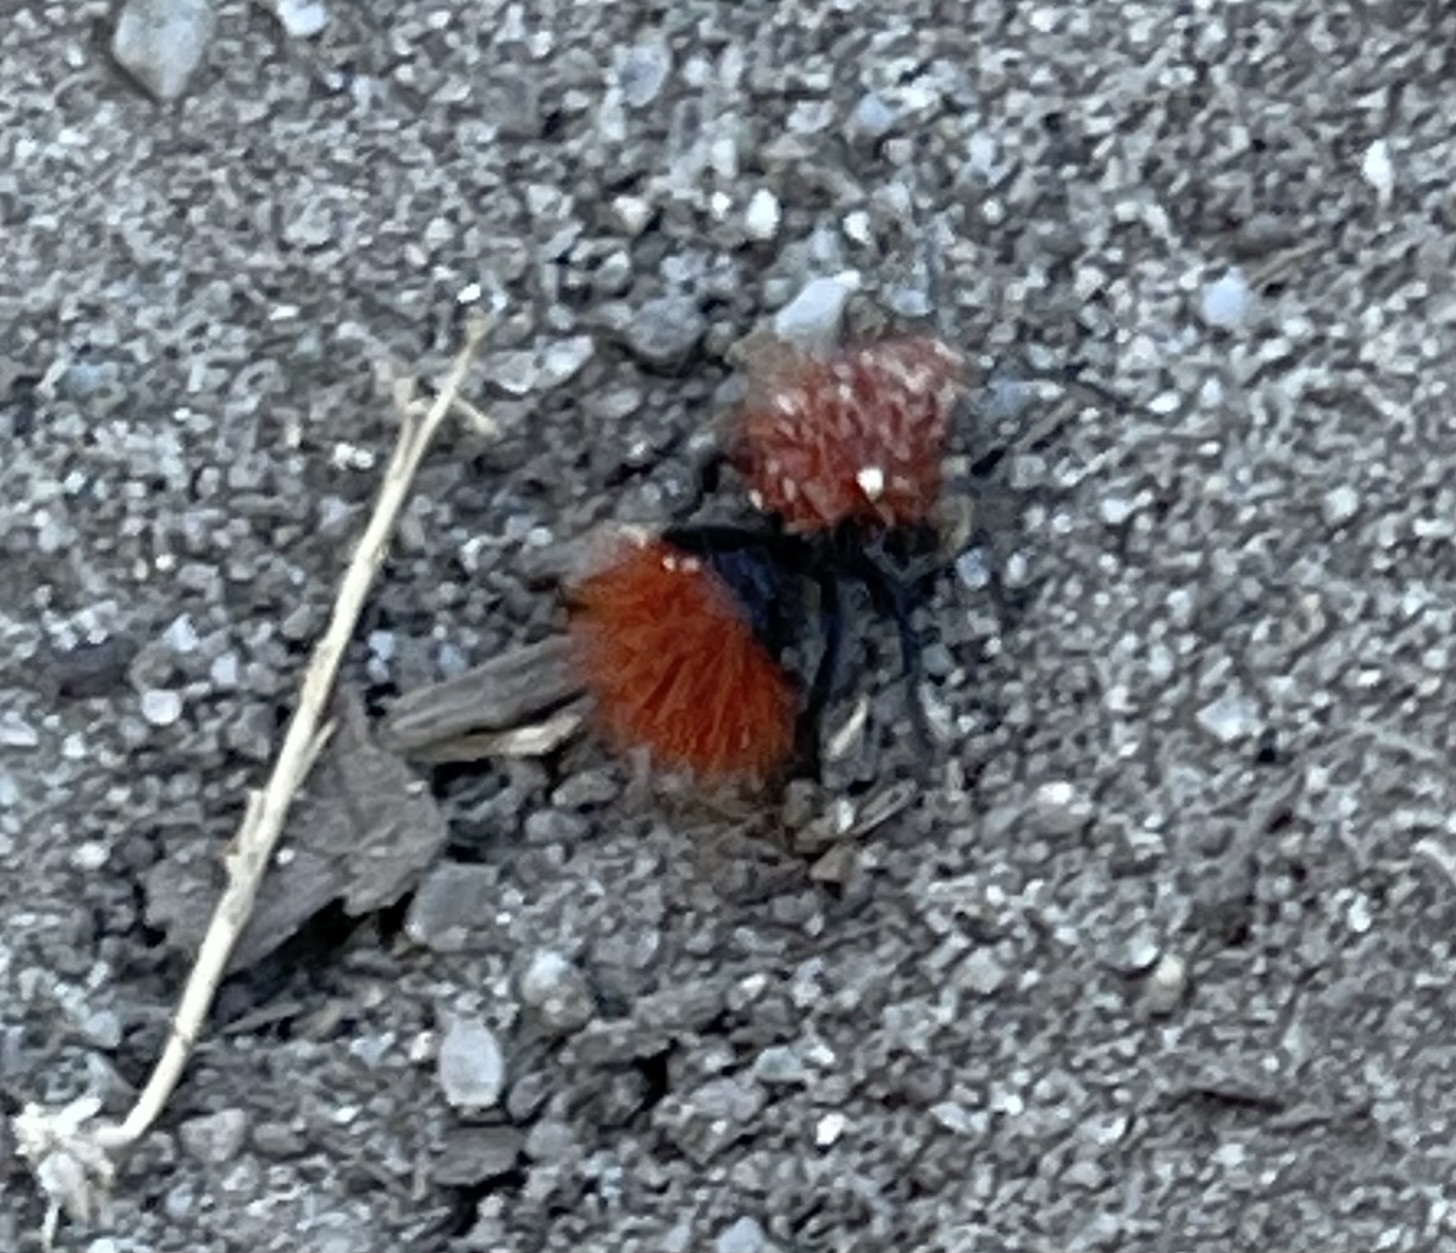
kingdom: Animalia
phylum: Arthropoda
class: Insecta
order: Hymenoptera
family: Mutillidae
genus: Dasymutilla
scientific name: Dasymutilla
